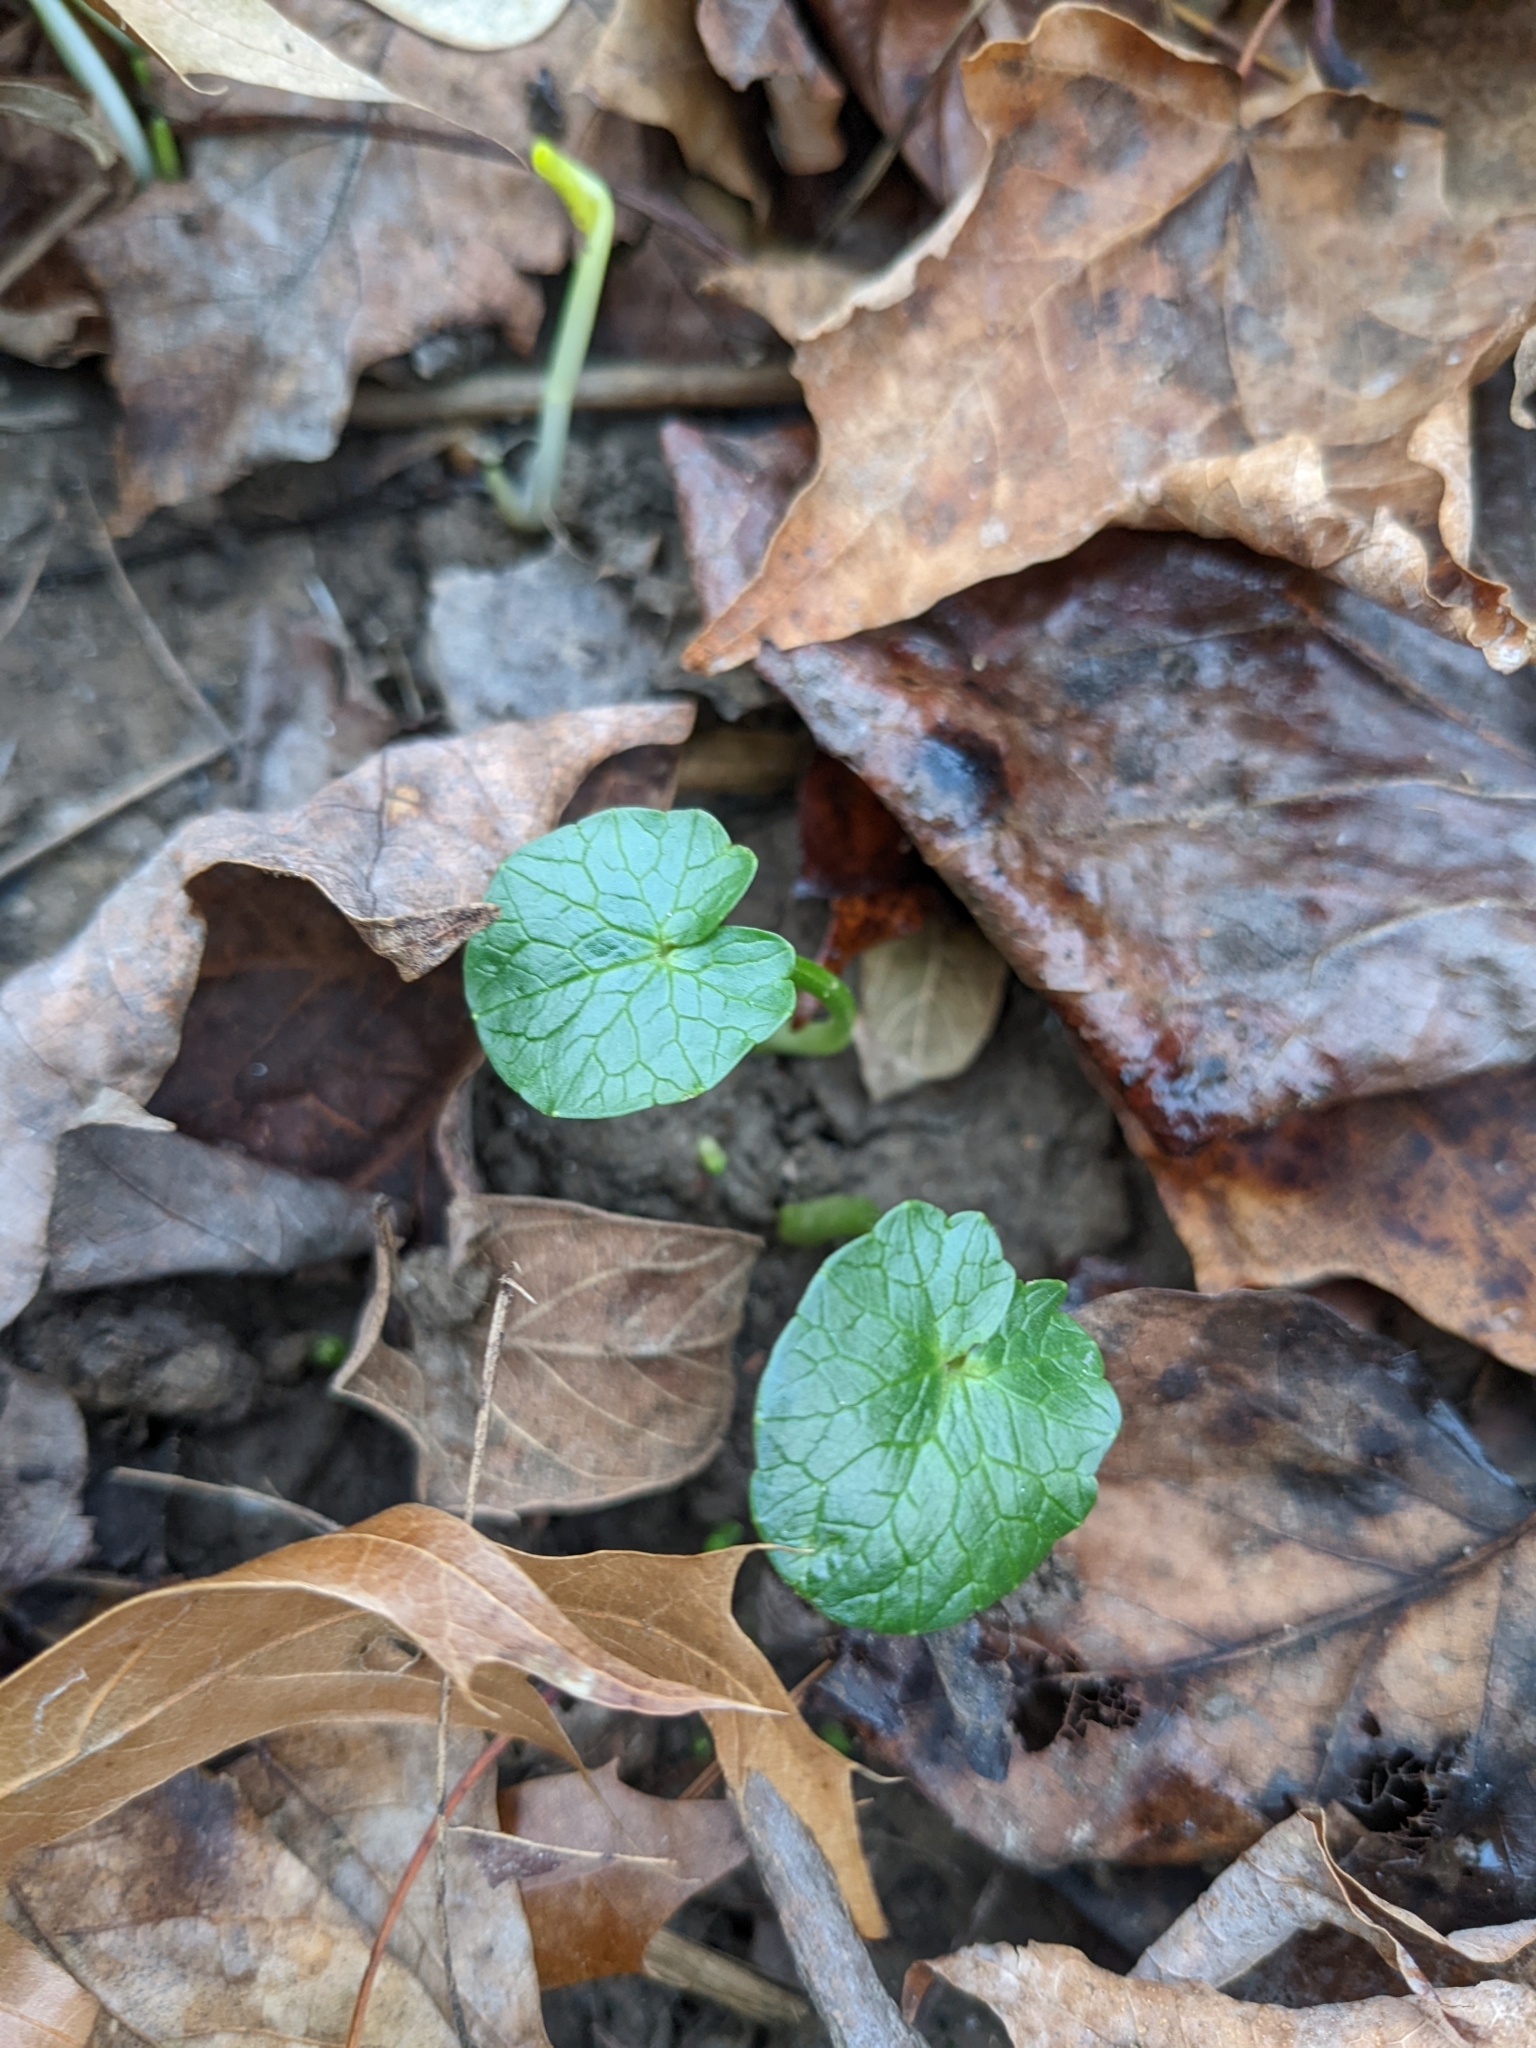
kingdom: Plantae
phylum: Tracheophyta
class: Magnoliopsida
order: Ranunculales
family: Ranunculaceae
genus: Ficaria
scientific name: Ficaria verna
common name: Lesser celandine
